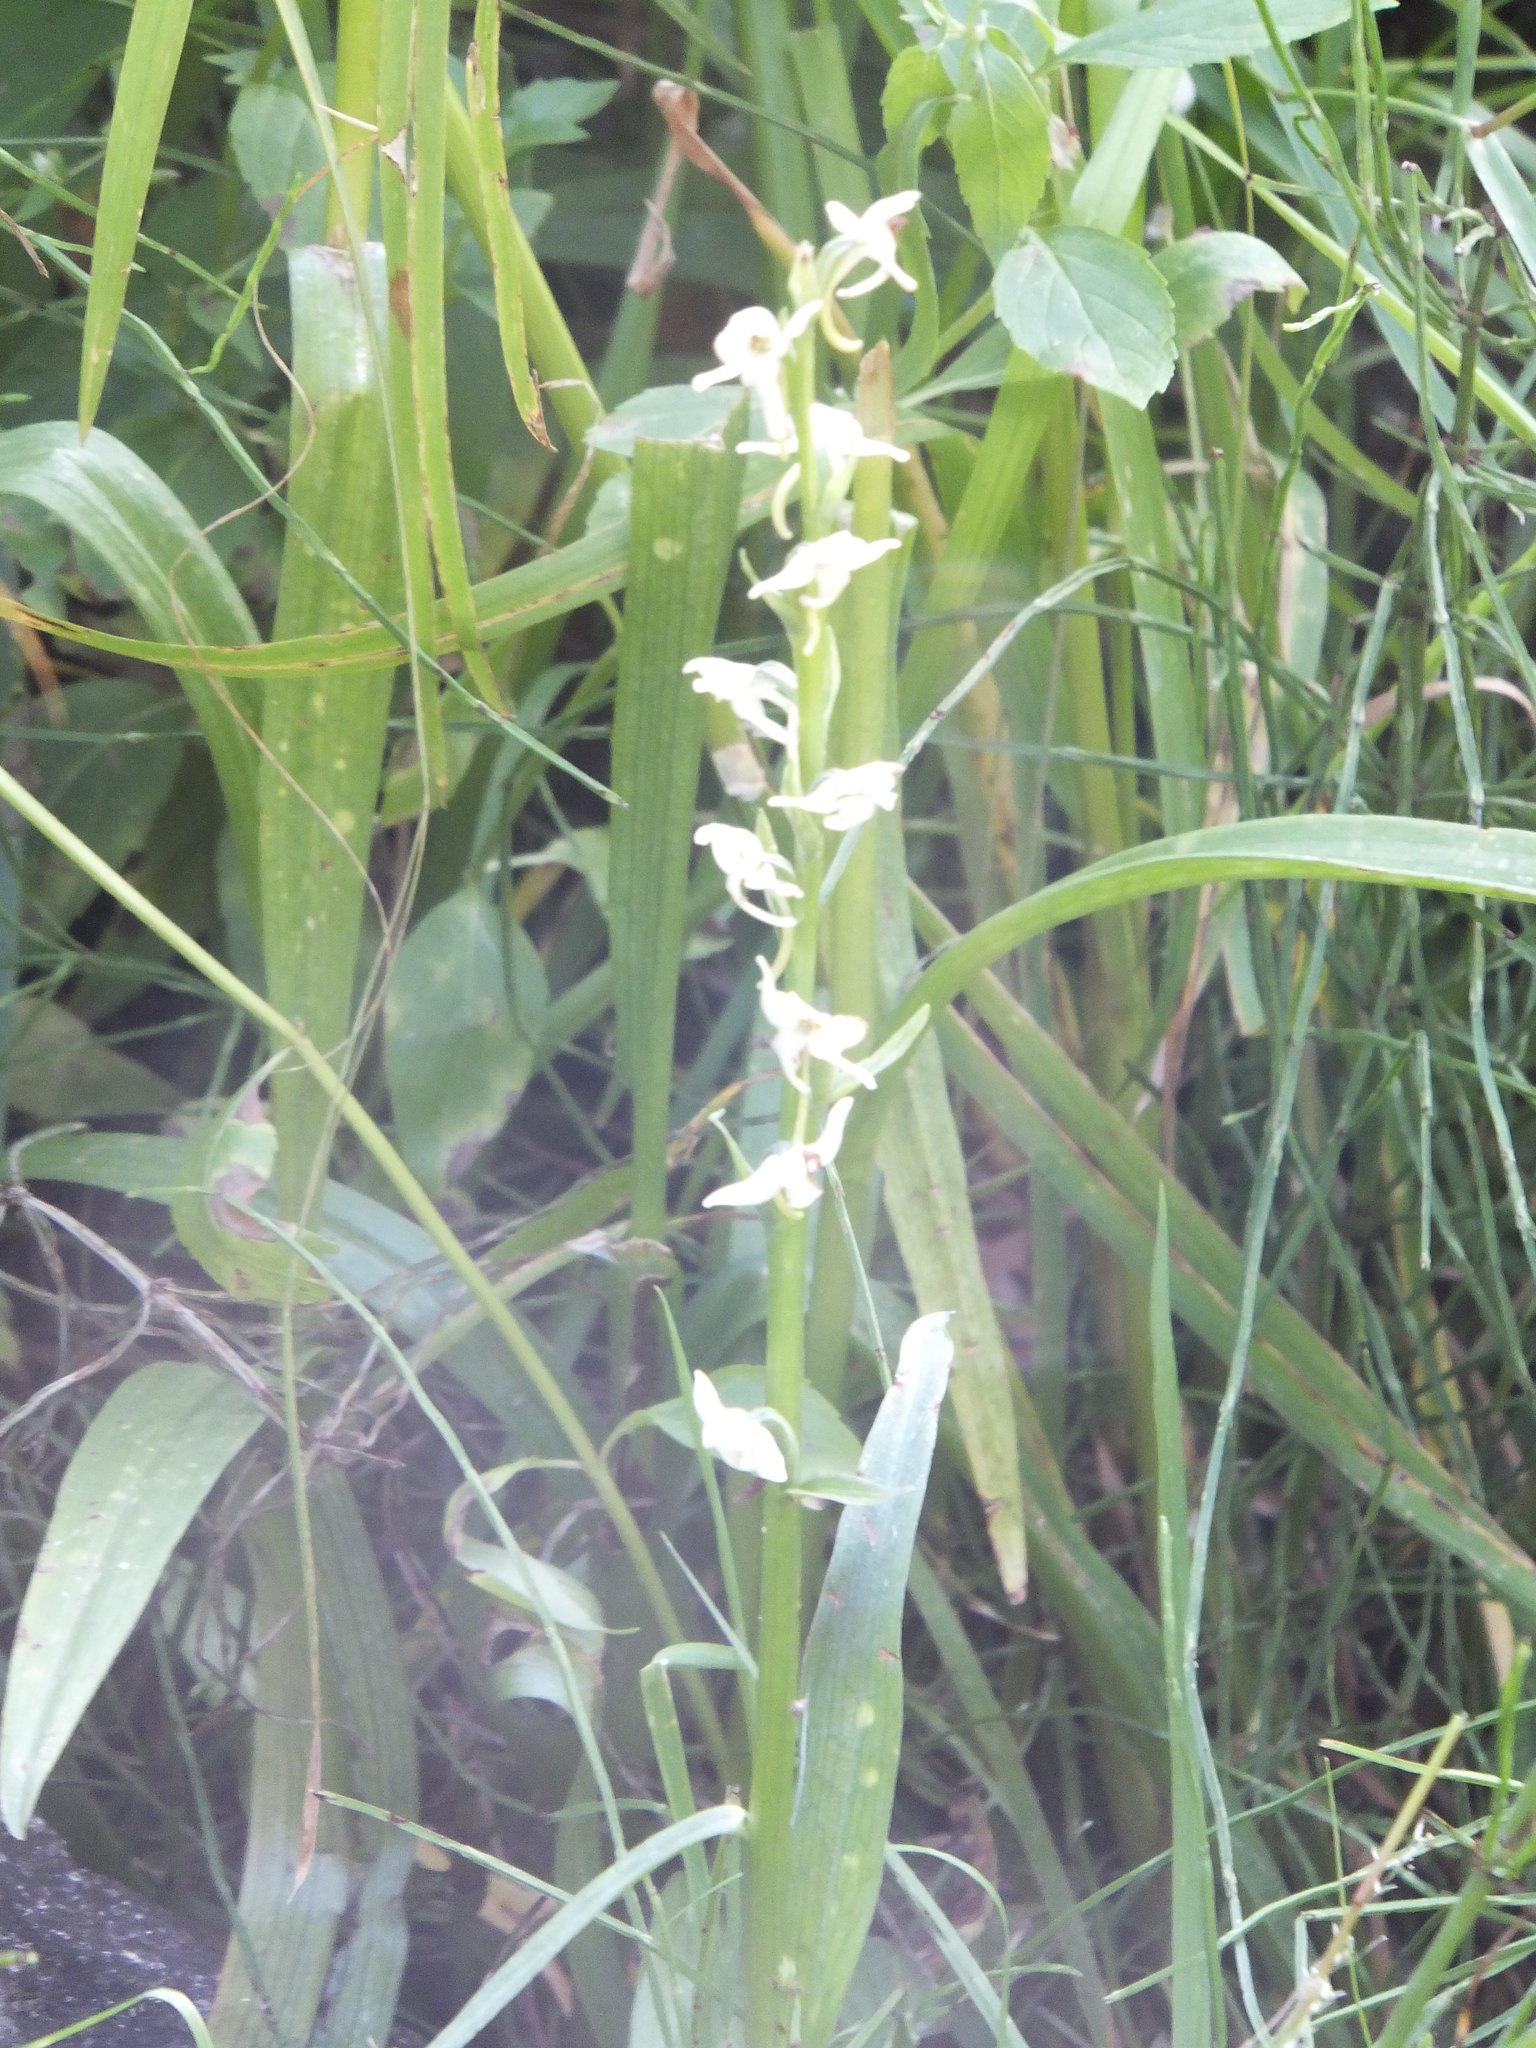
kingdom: Plantae
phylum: Tracheophyta
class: Liliopsida
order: Asparagales
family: Orchidaceae
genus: Platanthera
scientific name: Platanthera dilatata
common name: Bog candles
